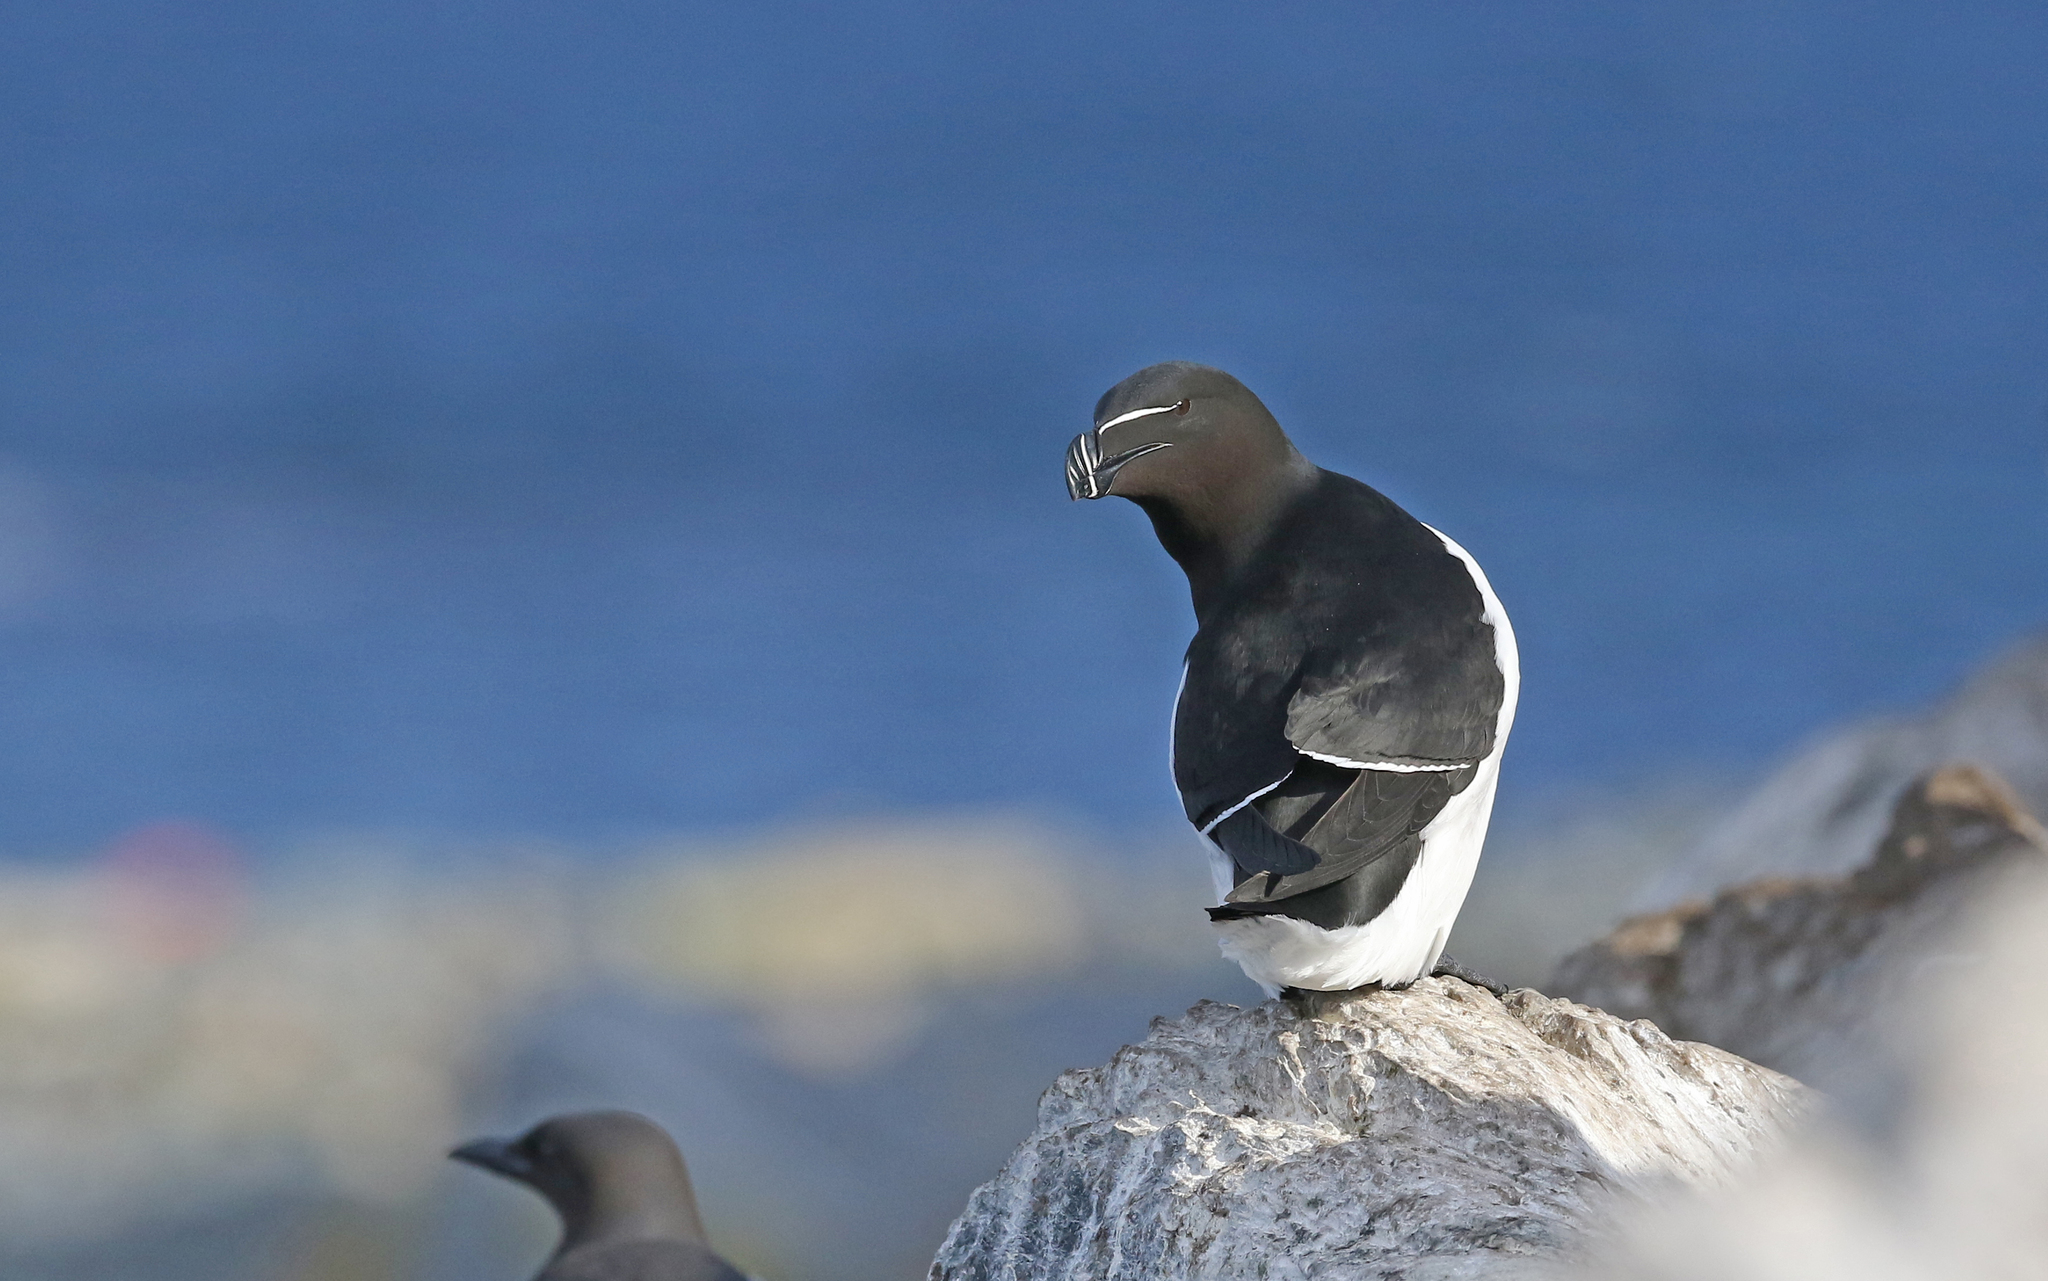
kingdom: Animalia
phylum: Chordata
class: Aves
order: Charadriiformes
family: Alcidae
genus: Alca
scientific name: Alca torda
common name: Razorbill
